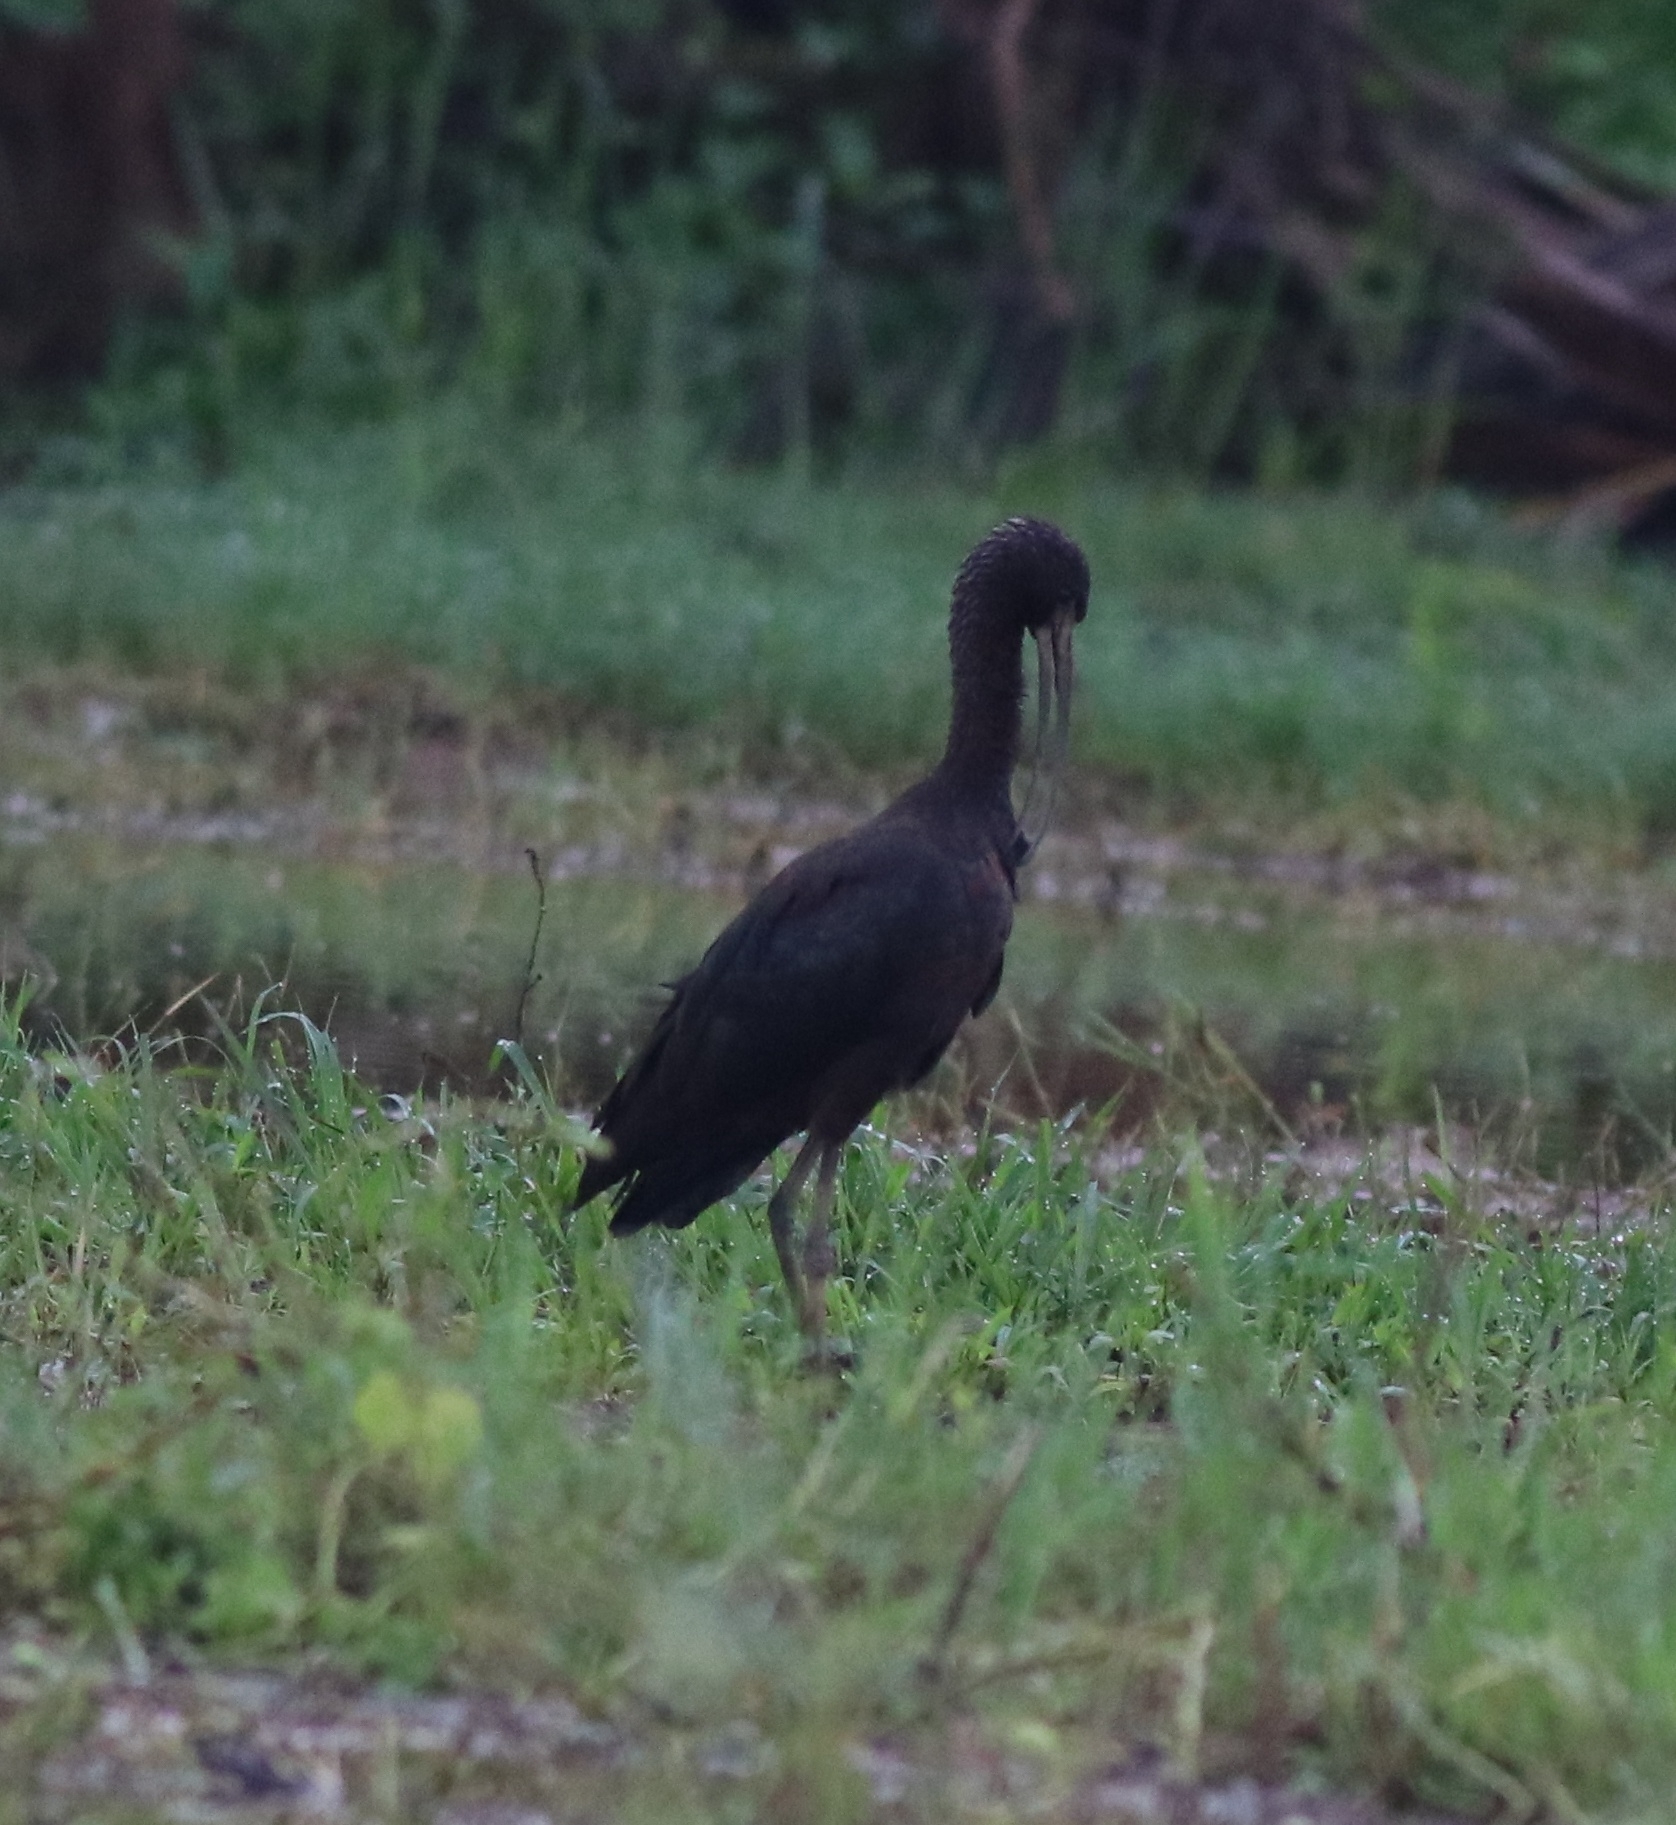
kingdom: Animalia
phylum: Chordata
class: Aves
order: Pelecaniformes
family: Threskiornithidae
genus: Plegadis
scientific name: Plegadis falcinellus
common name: Glossy ibis
